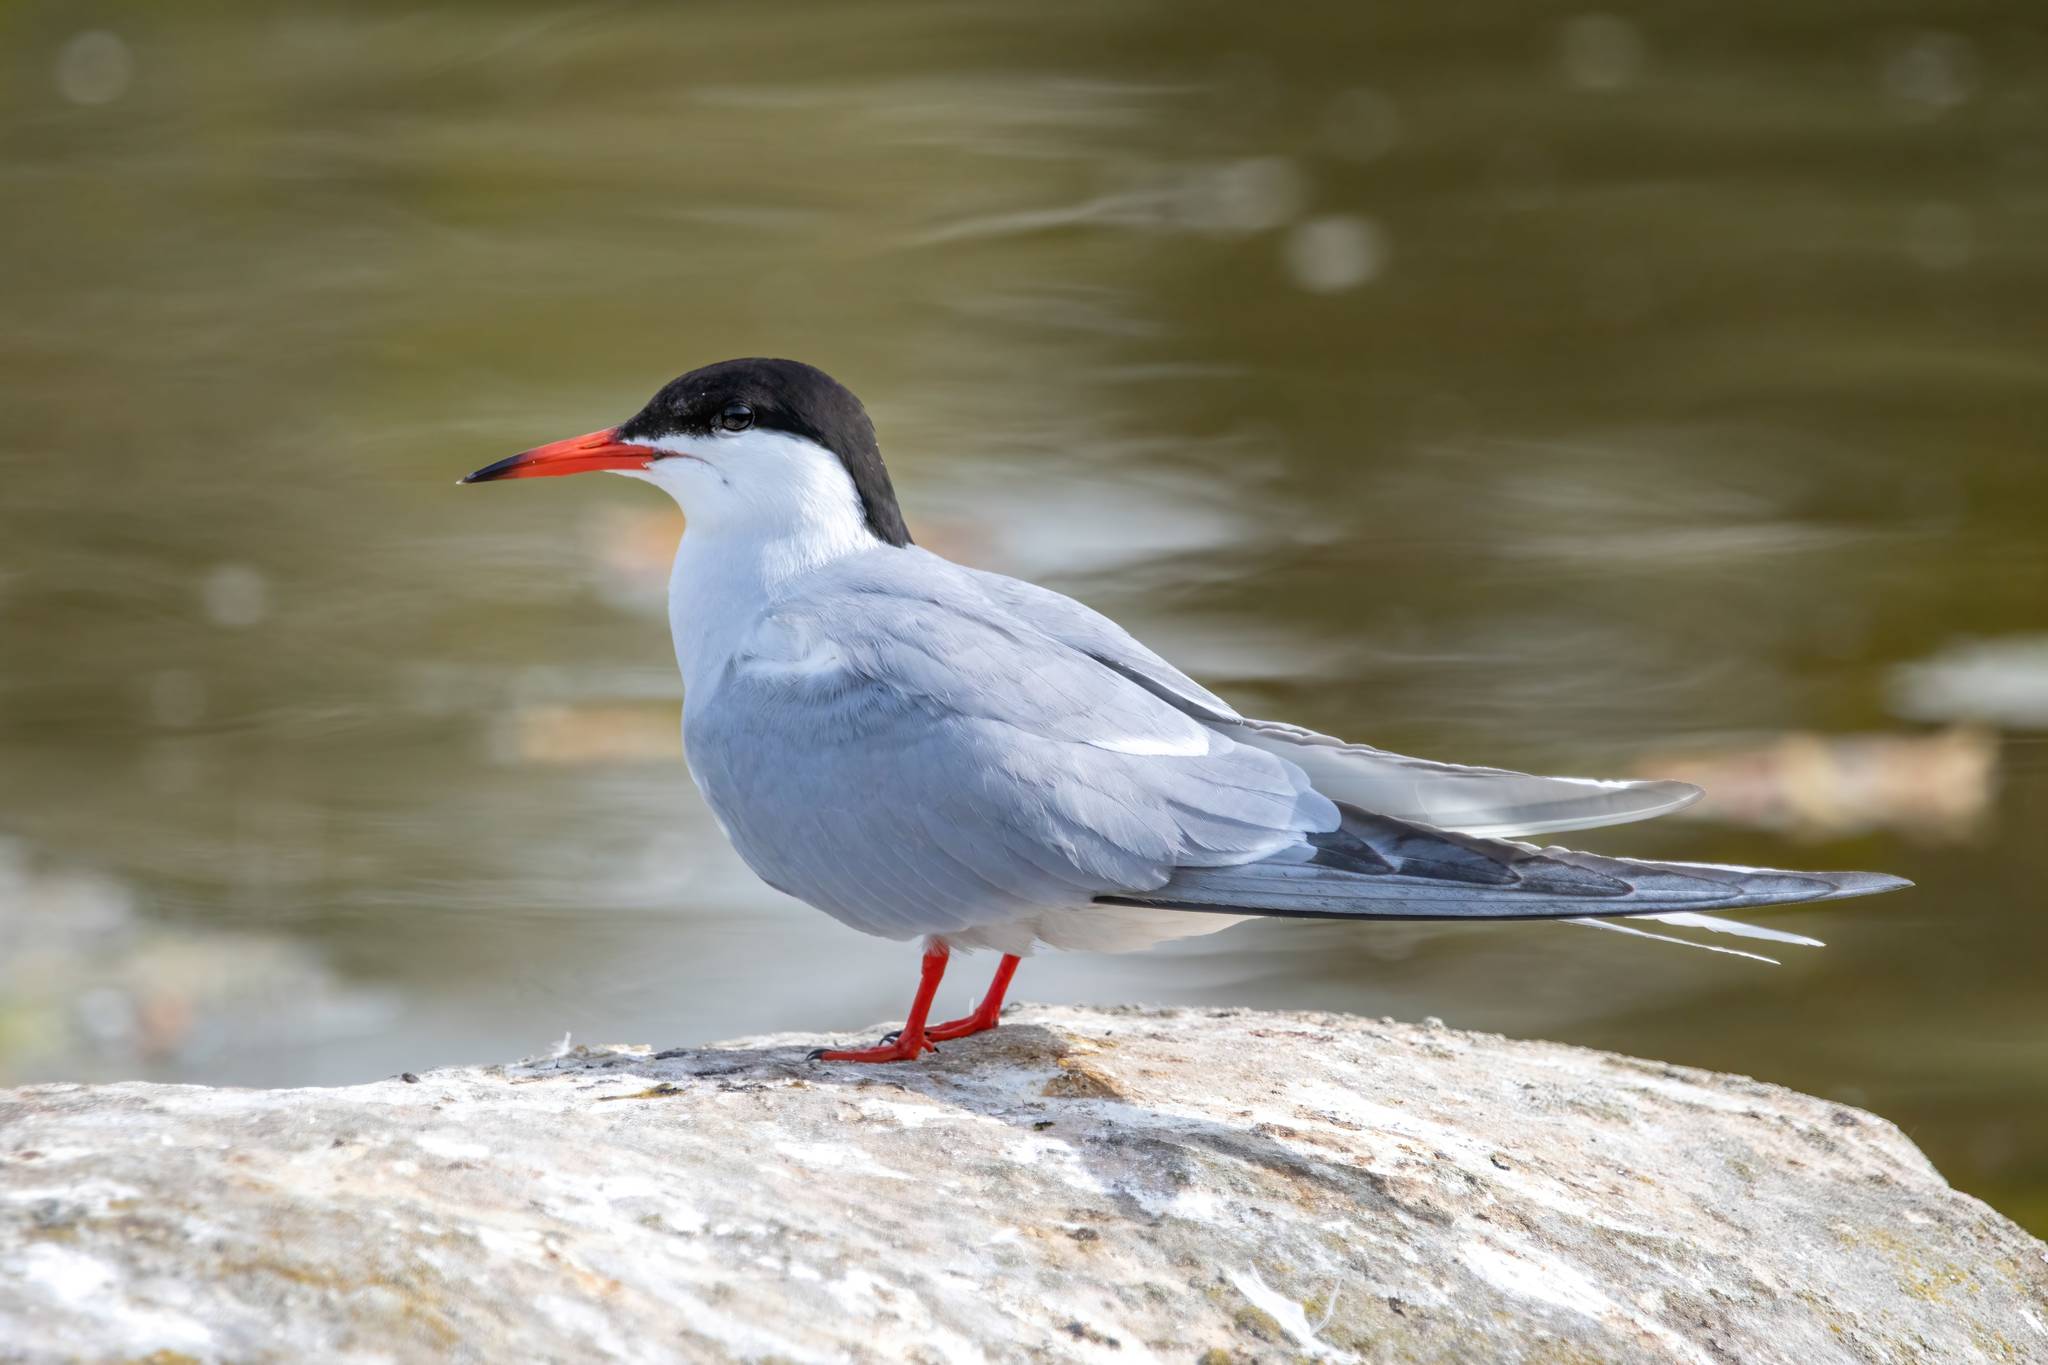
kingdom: Animalia
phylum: Chordata
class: Aves
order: Charadriiformes
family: Laridae
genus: Sterna
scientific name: Sterna hirundo
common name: Common tern
